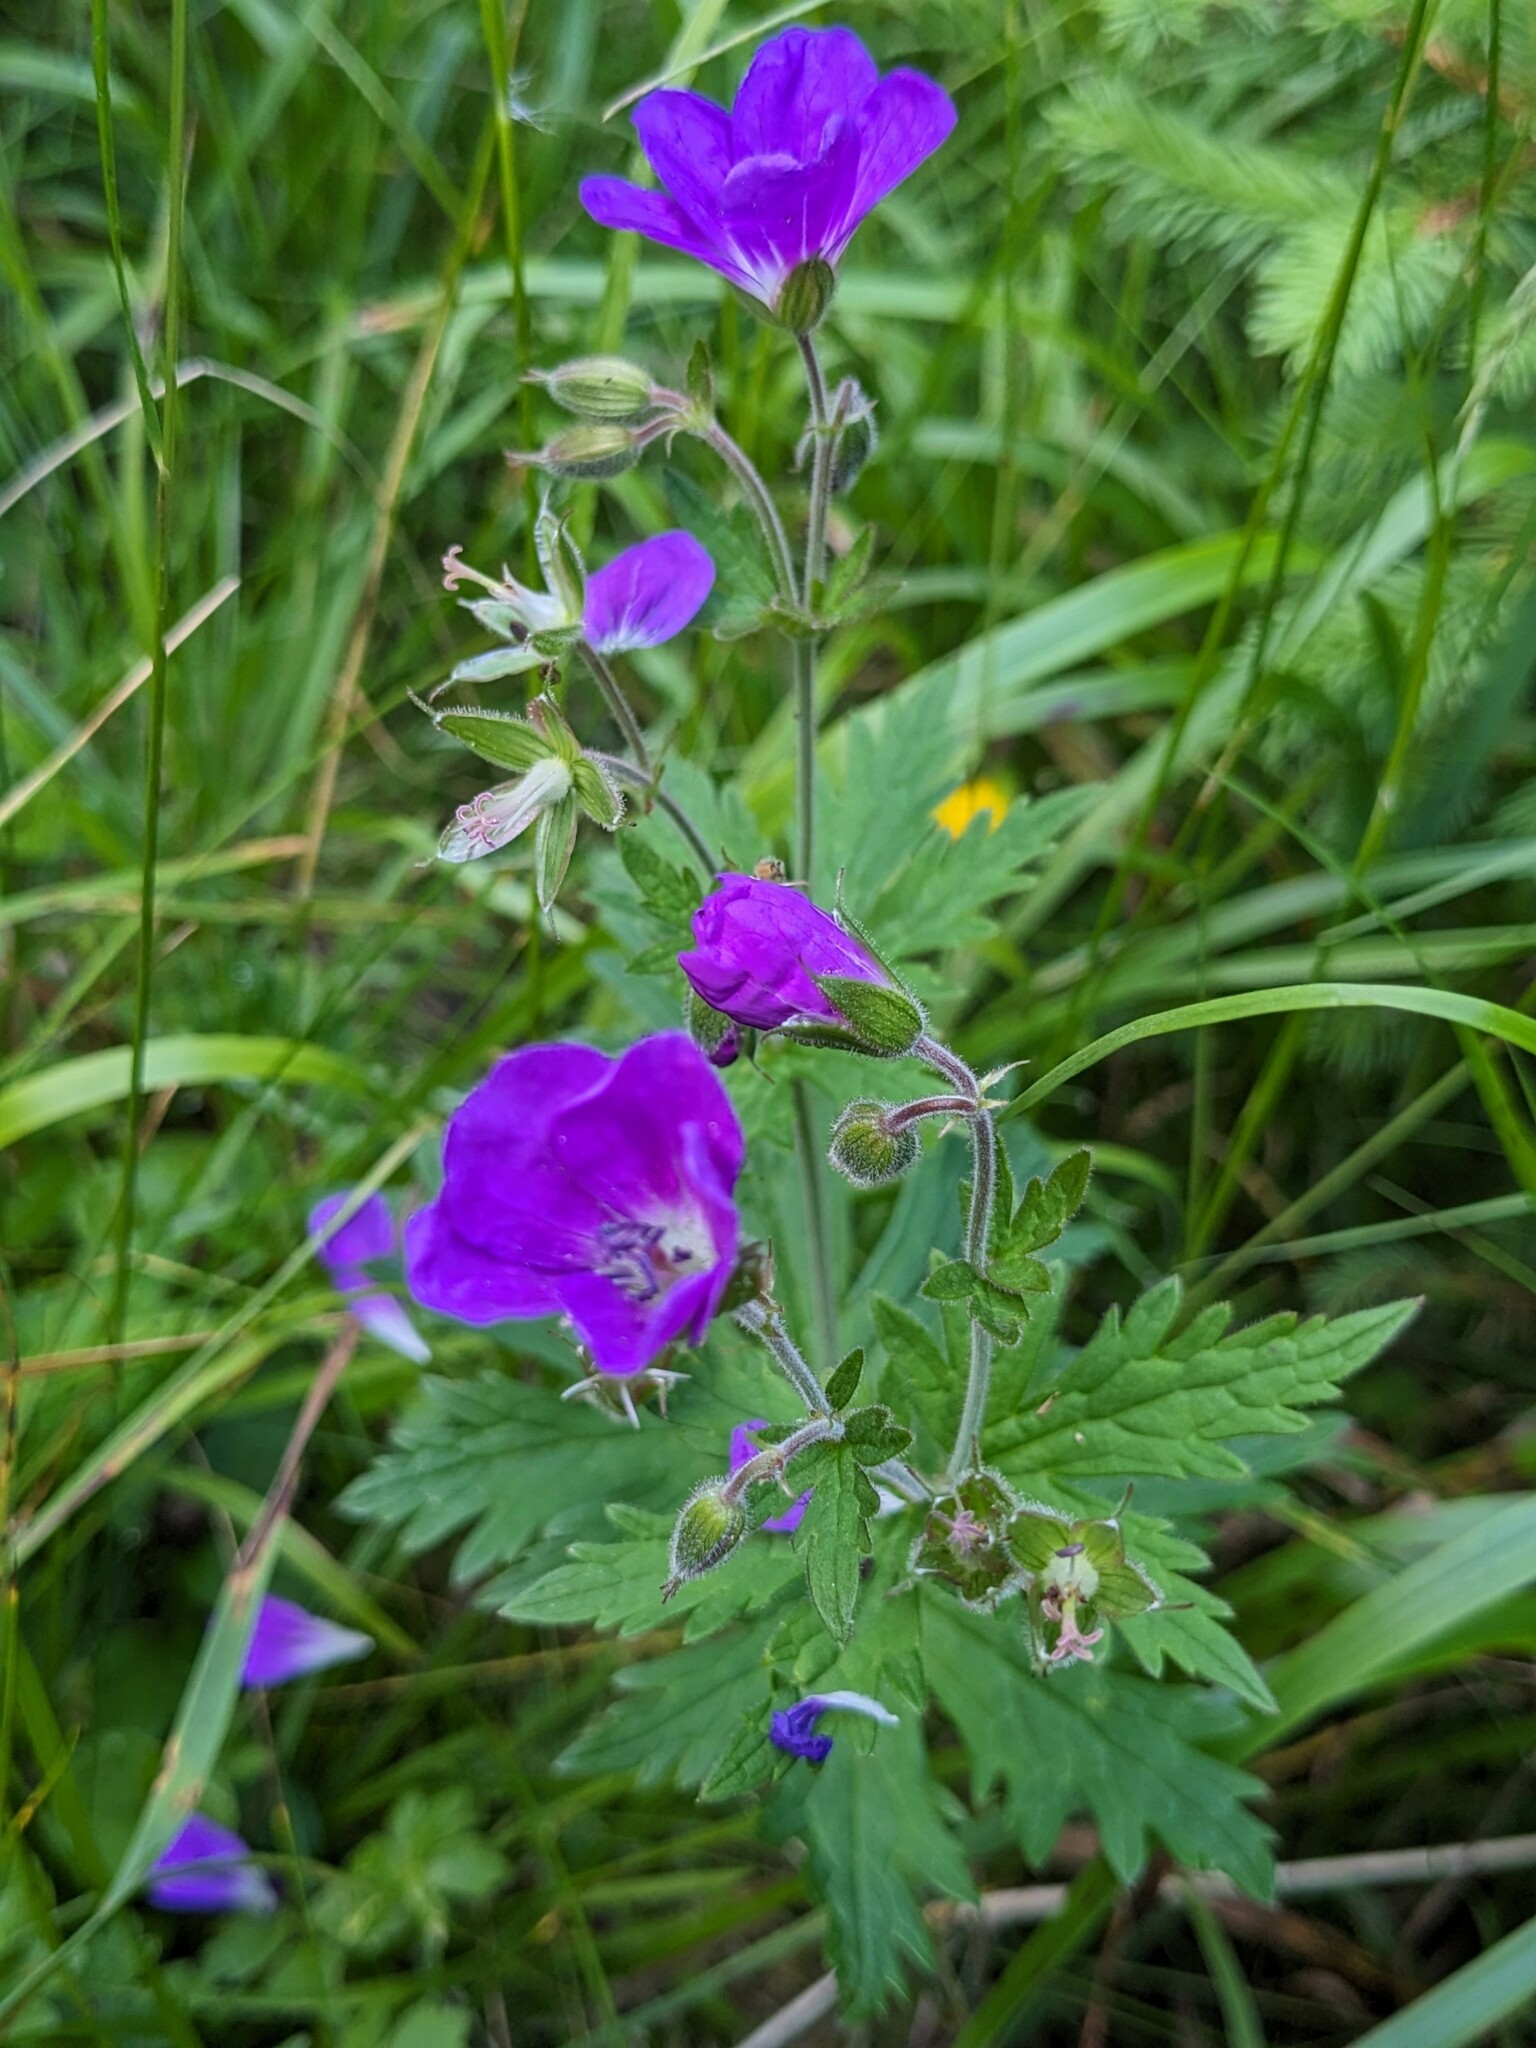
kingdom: Plantae
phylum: Tracheophyta
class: Magnoliopsida
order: Geraniales
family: Geraniaceae
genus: Geranium
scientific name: Geranium sylvaticum
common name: Wood crane's-bill
